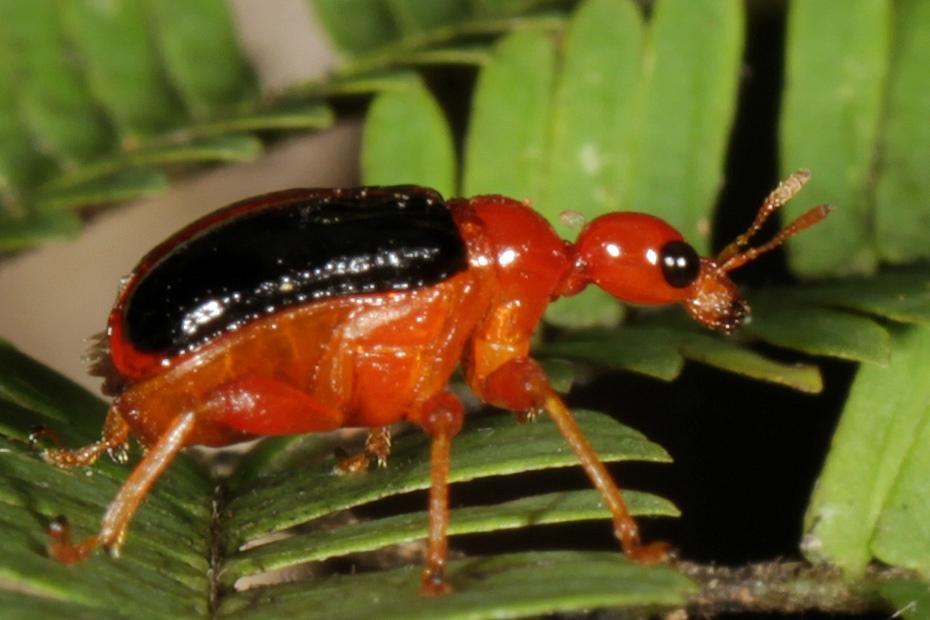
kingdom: Animalia
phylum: Arthropoda
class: Insecta
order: Coleoptera
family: Attelabidae
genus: Parapoderus
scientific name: Parapoderus nigripennis
